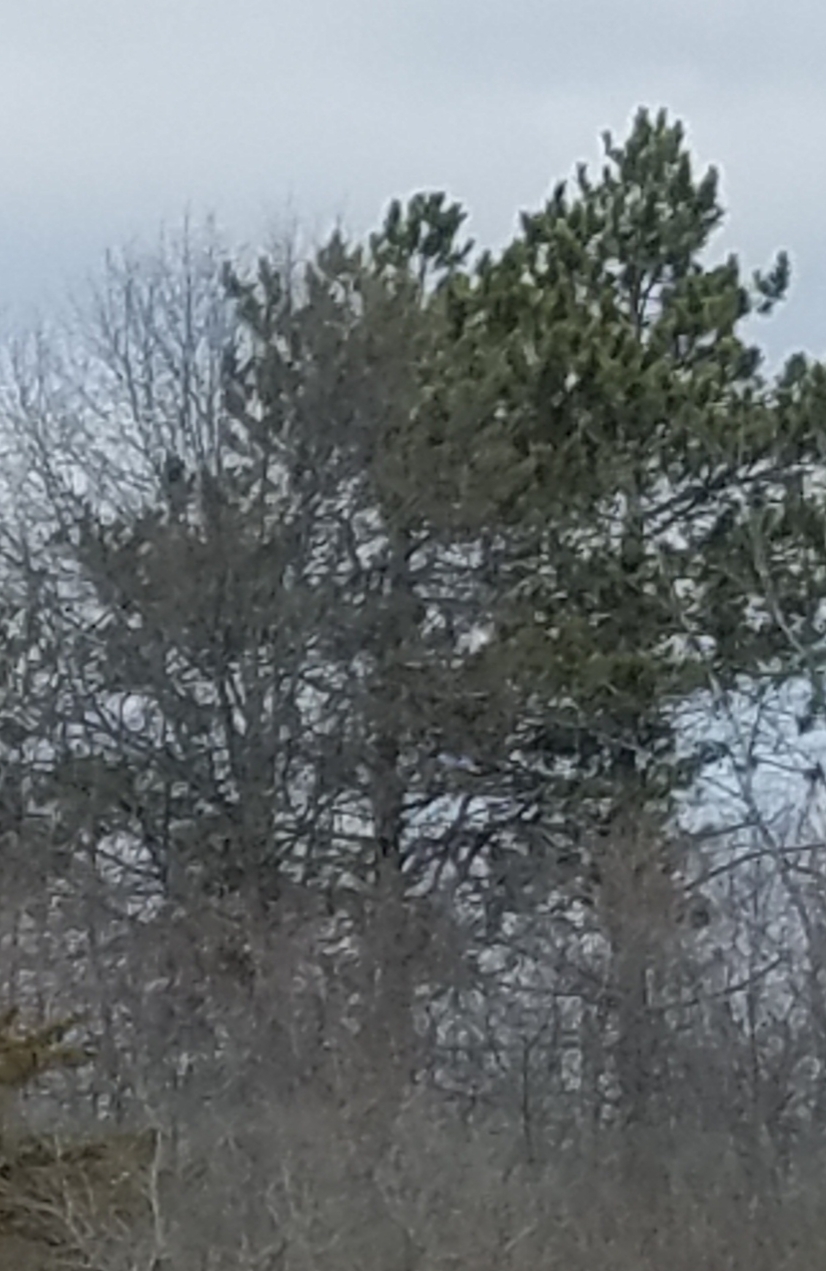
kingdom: Plantae
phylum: Tracheophyta
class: Pinopsida
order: Pinales
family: Pinaceae
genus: Pinus
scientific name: Pinus resinosa
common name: Norway pine
